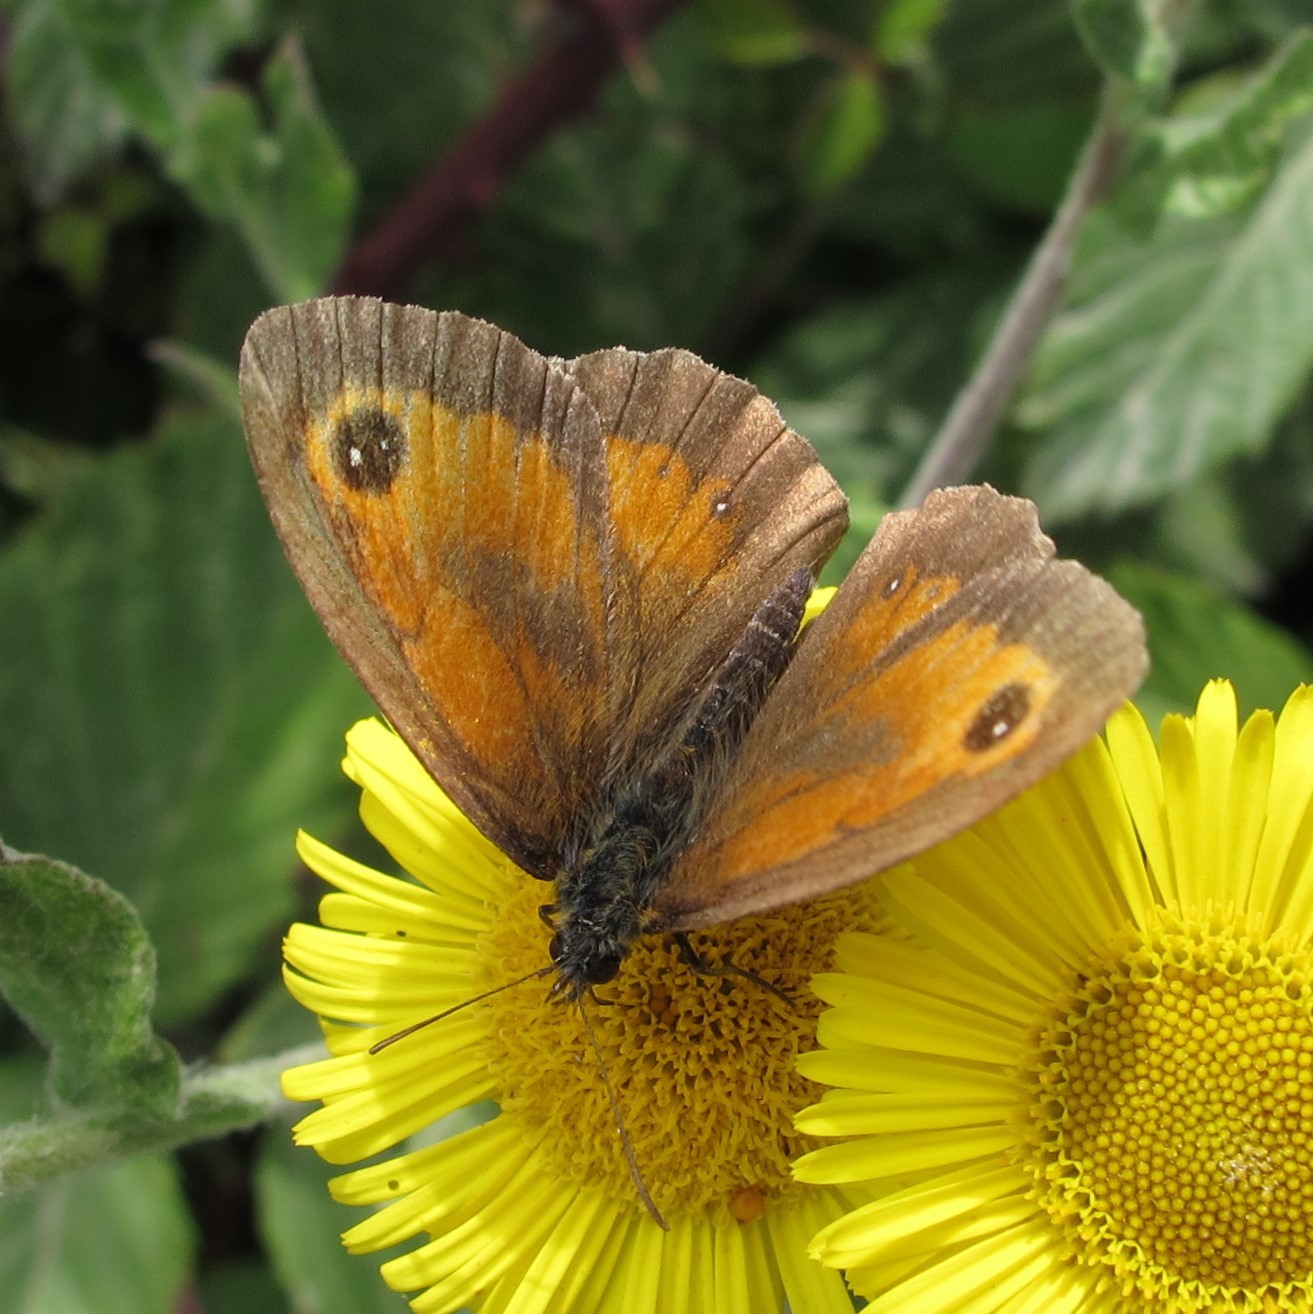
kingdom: Animalia
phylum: Arthropoda
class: Insecta
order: Lepidoptera
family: Nymphalidae
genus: Pyronia
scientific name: Pyronia tithonus
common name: Gatekeeper
